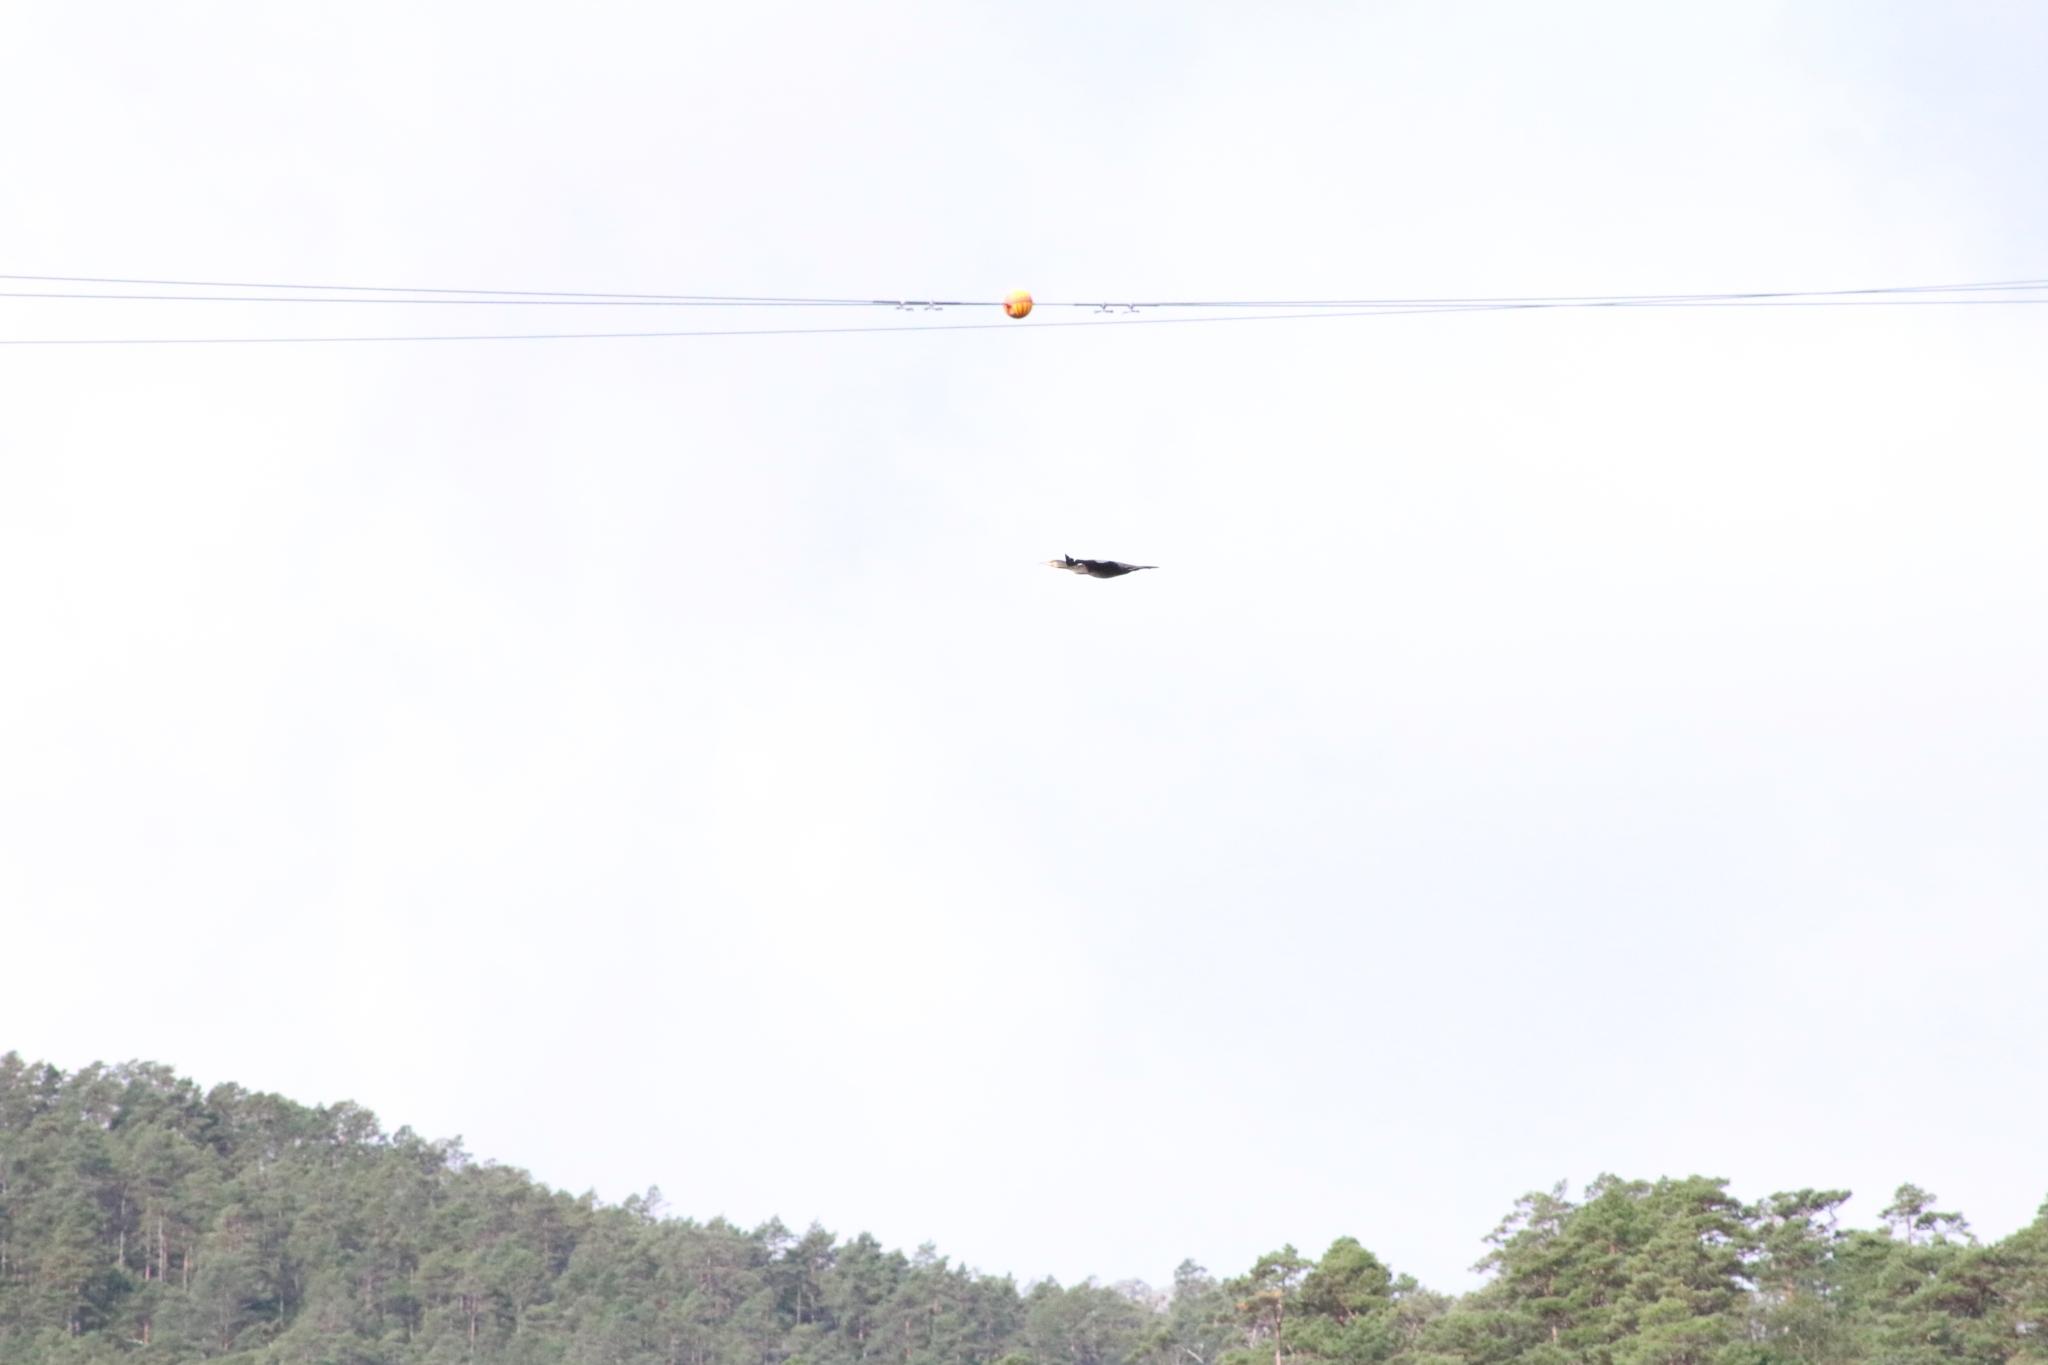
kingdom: Animalia
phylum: Chordata
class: Aves
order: Suliformes
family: Phalacrocoracidae
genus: Phalacrocorax
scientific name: Phalacrocorax carbo
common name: Great cormorant
